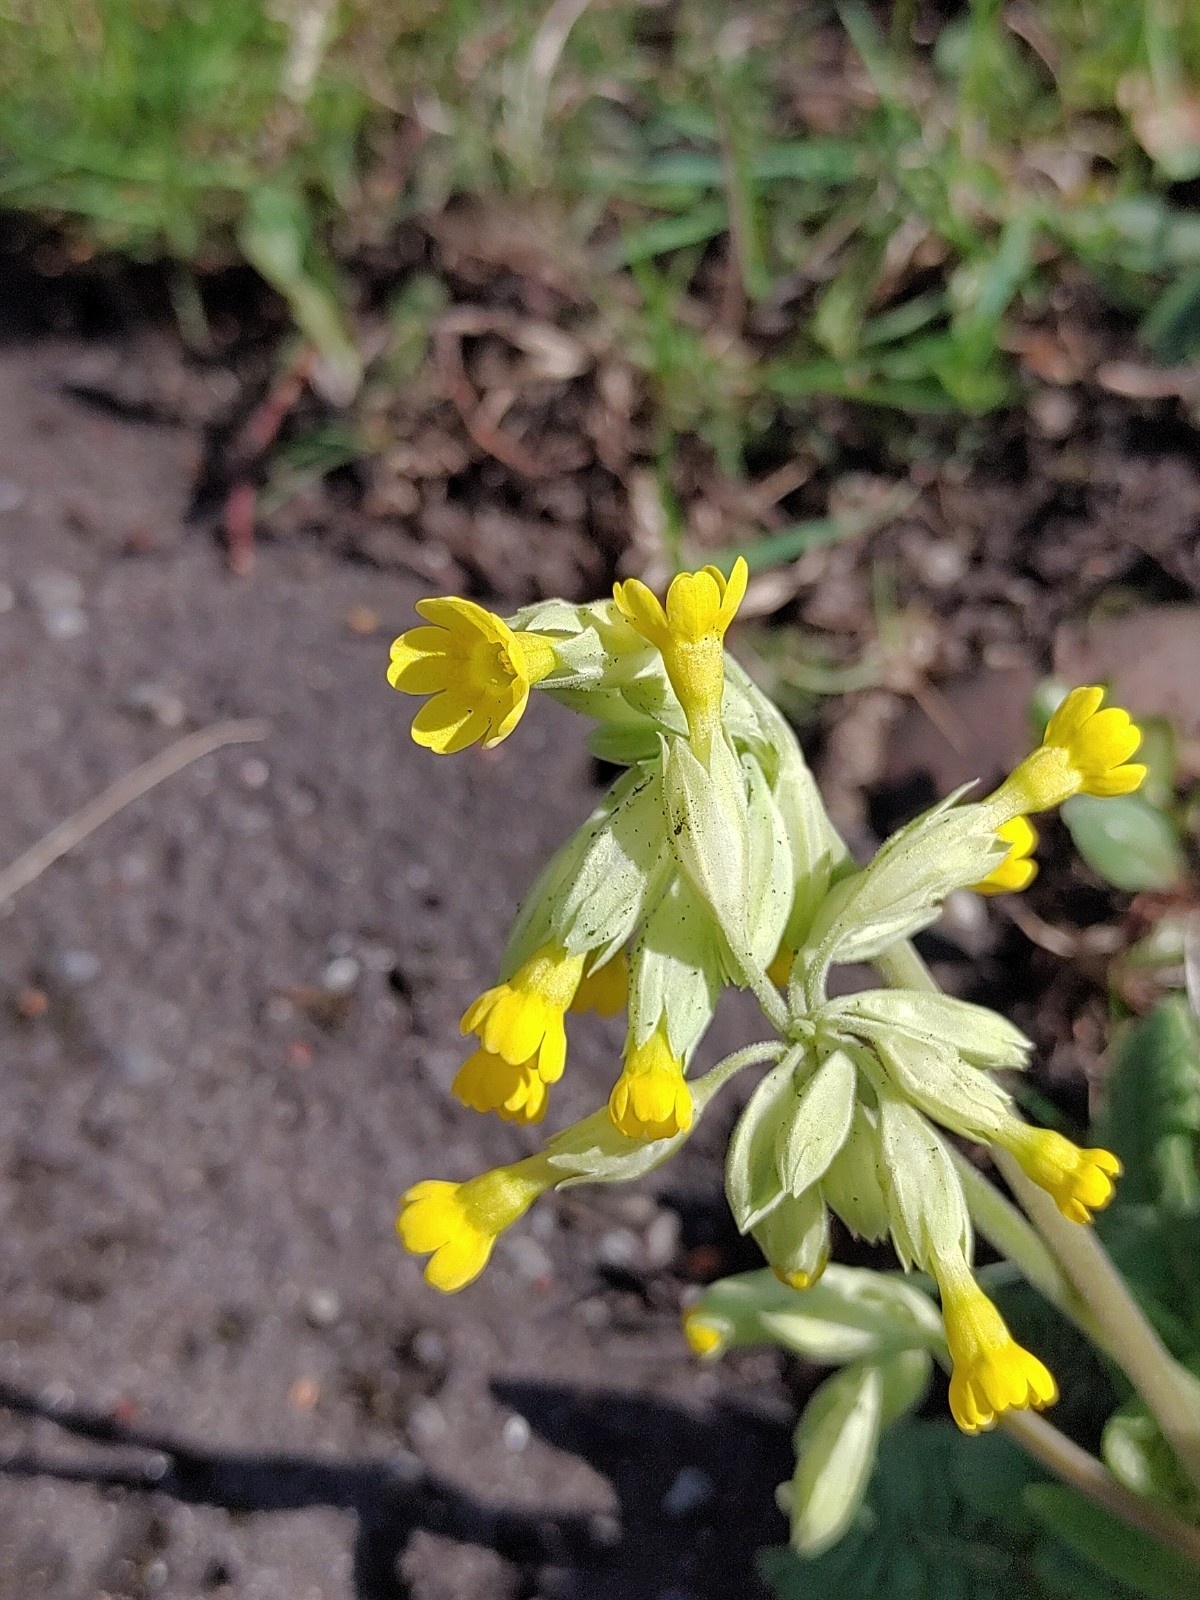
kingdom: Plantae
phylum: Tracheophyta
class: Magnoliopsida
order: Ericales
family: Primulaceae
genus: Primula
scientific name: Primula veris
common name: Cowslip
